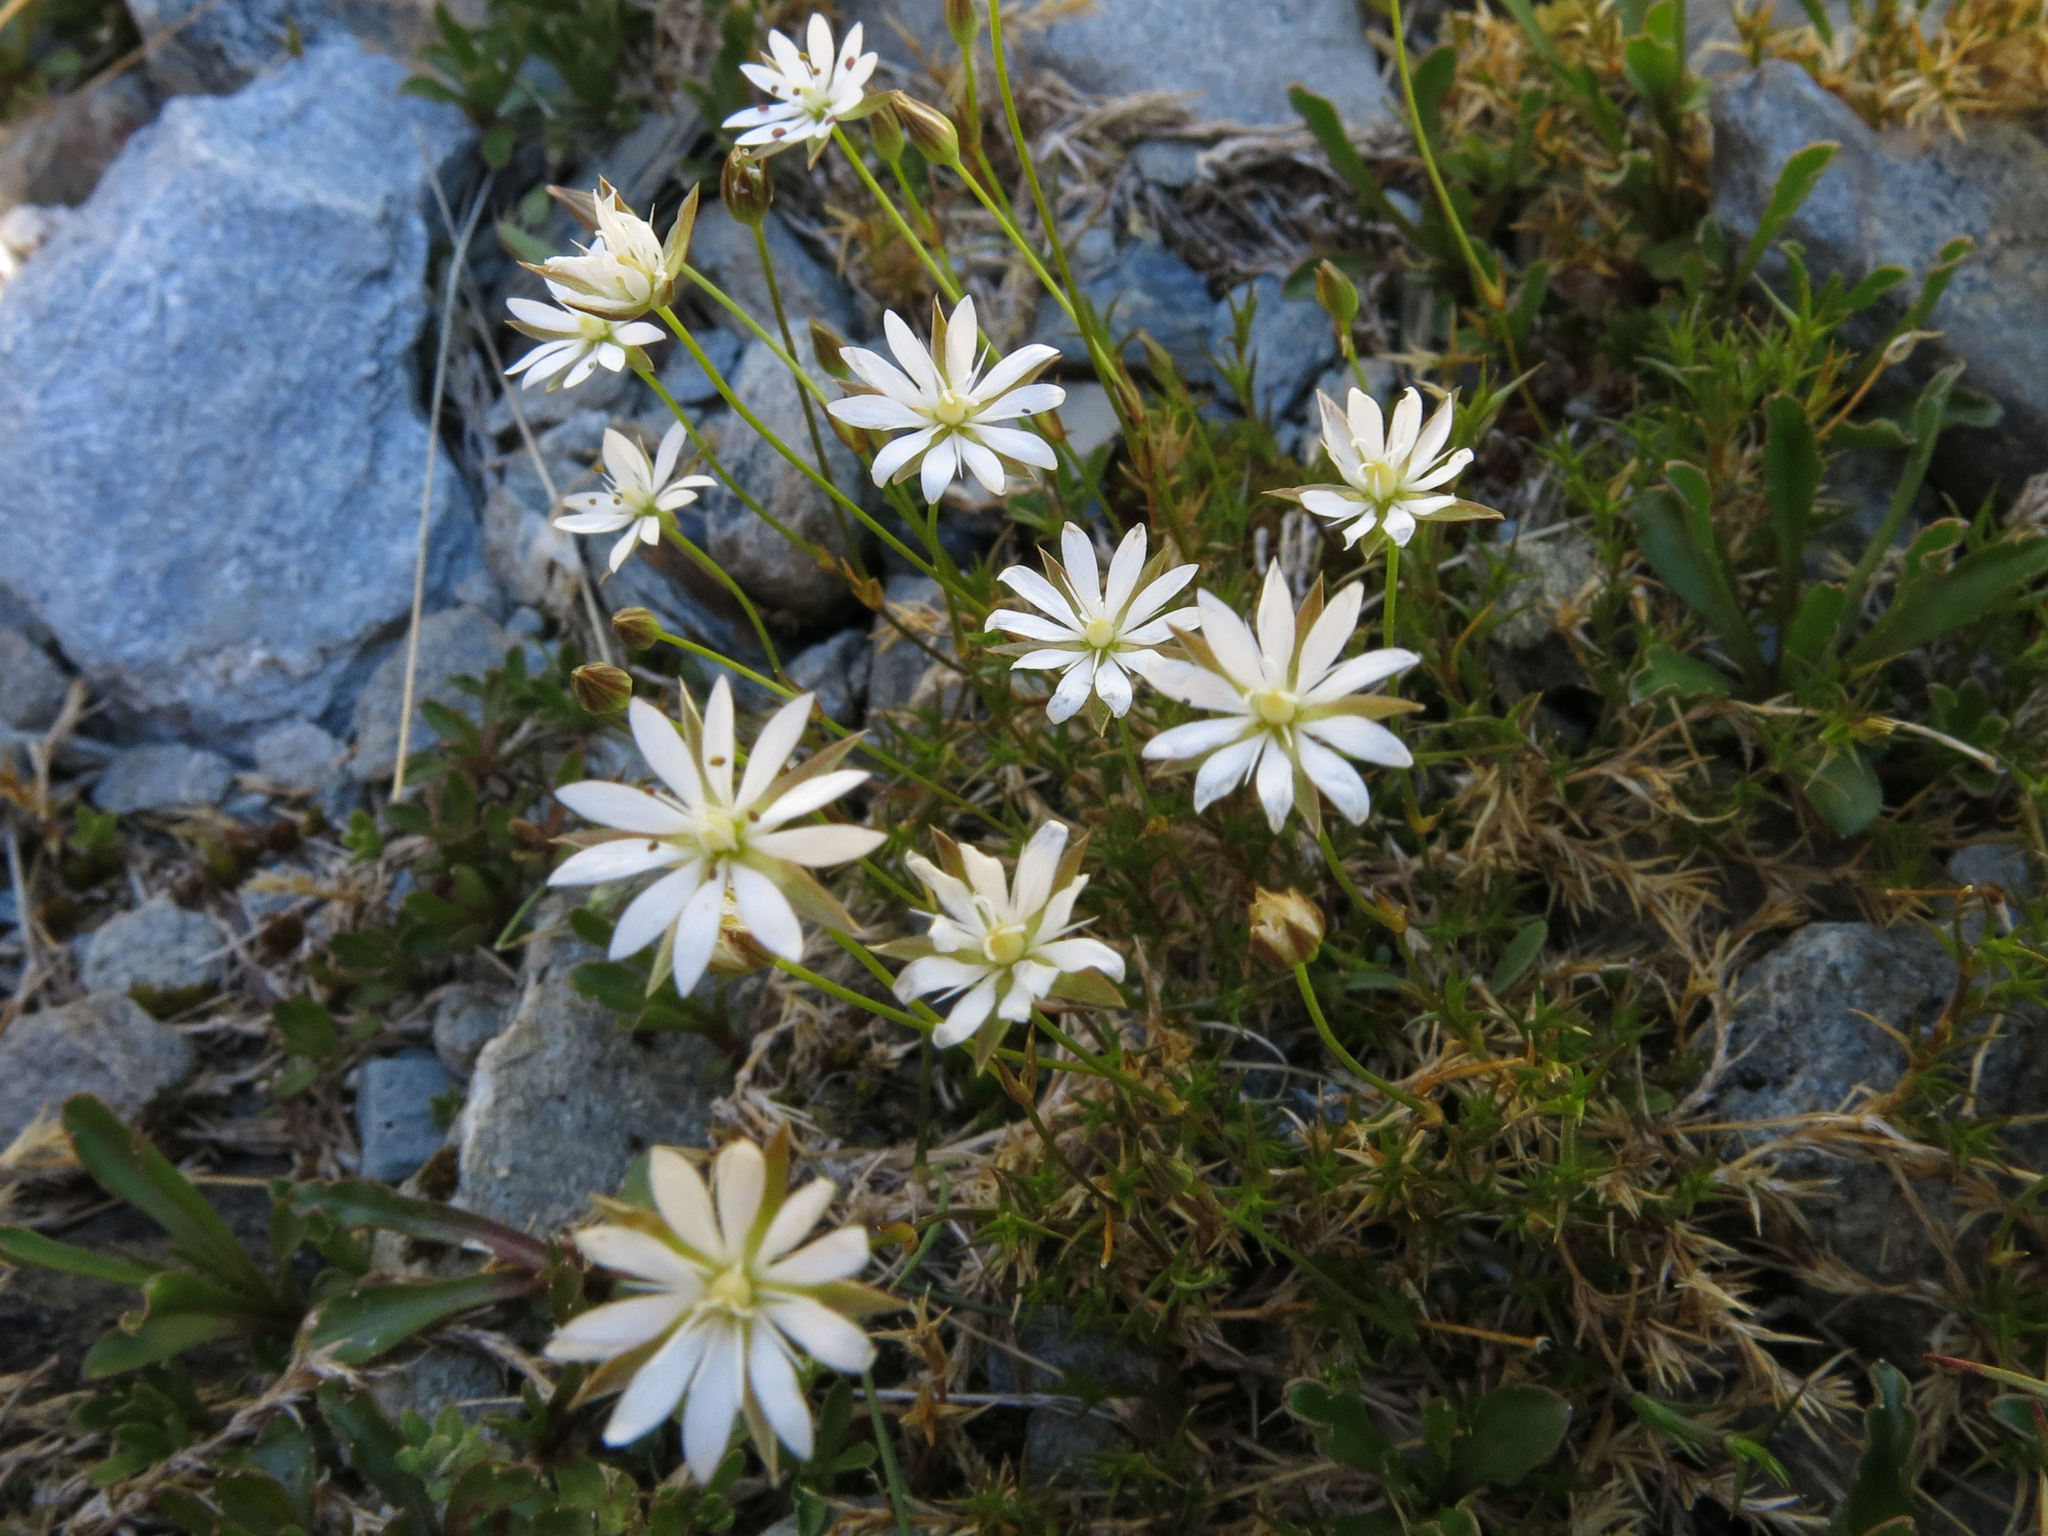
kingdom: Plantae
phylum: Tracheophyta
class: Magnoliopsida
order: Caryophyllales
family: Caryophyllaceae
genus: Stellaria
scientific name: Stellaria gracilenta
